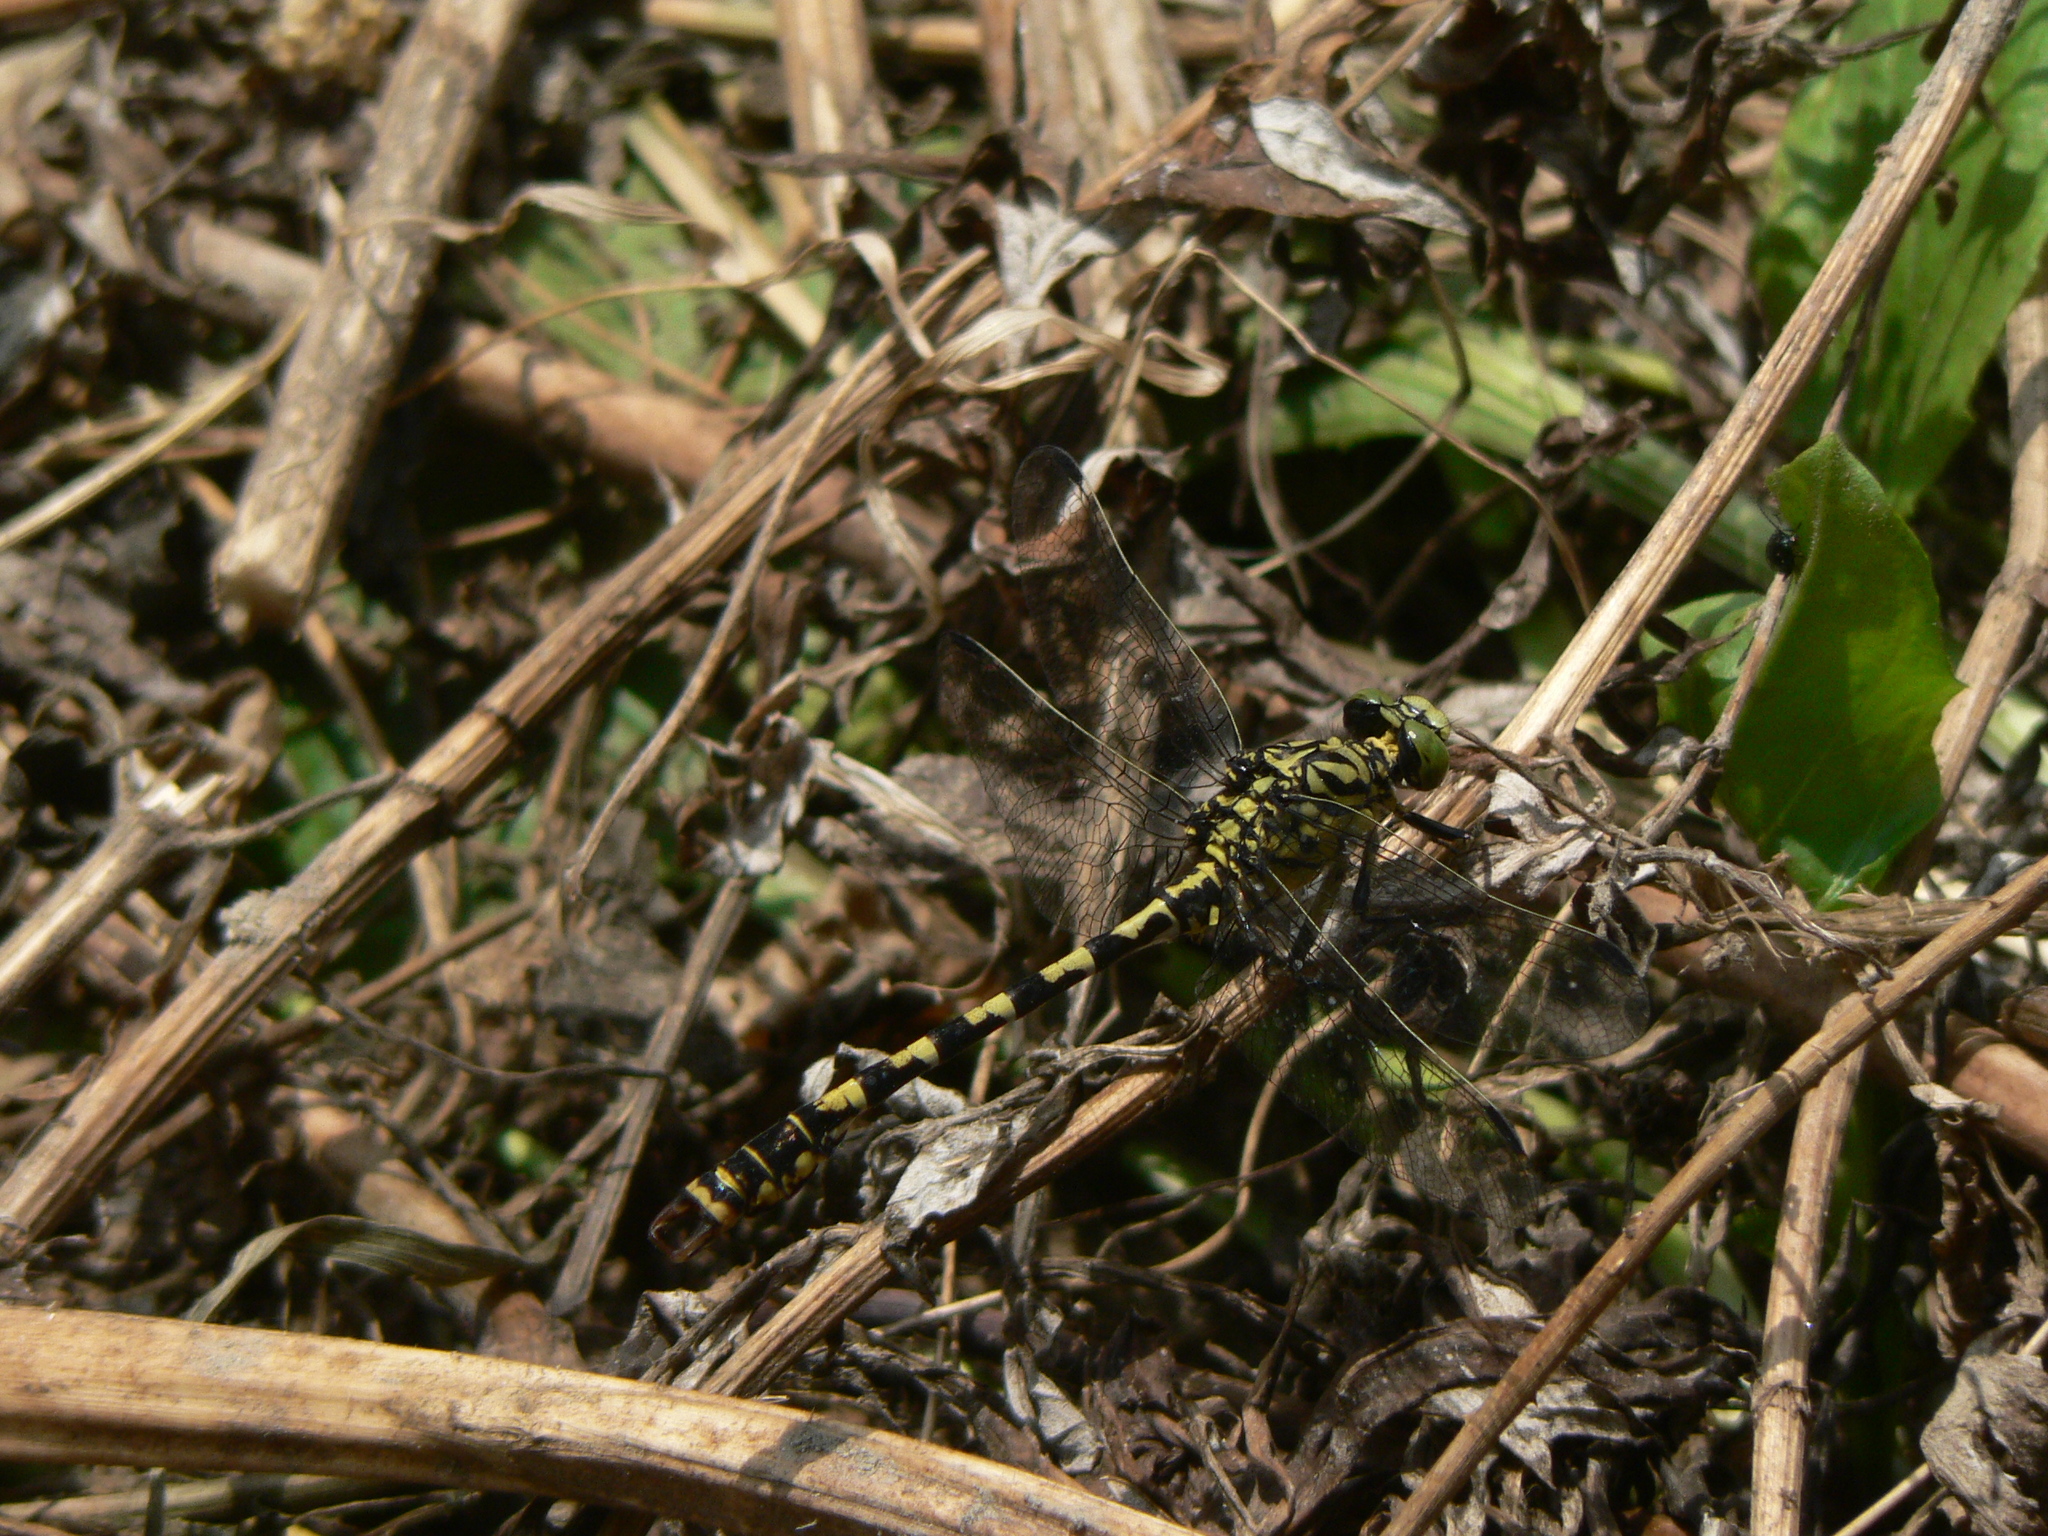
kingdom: Animalia
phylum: Arthropoda
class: Insecta
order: Odonata
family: Gomphidae
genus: Onychogomphus
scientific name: Onychogomphus forcipatus
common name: Small pincertail
